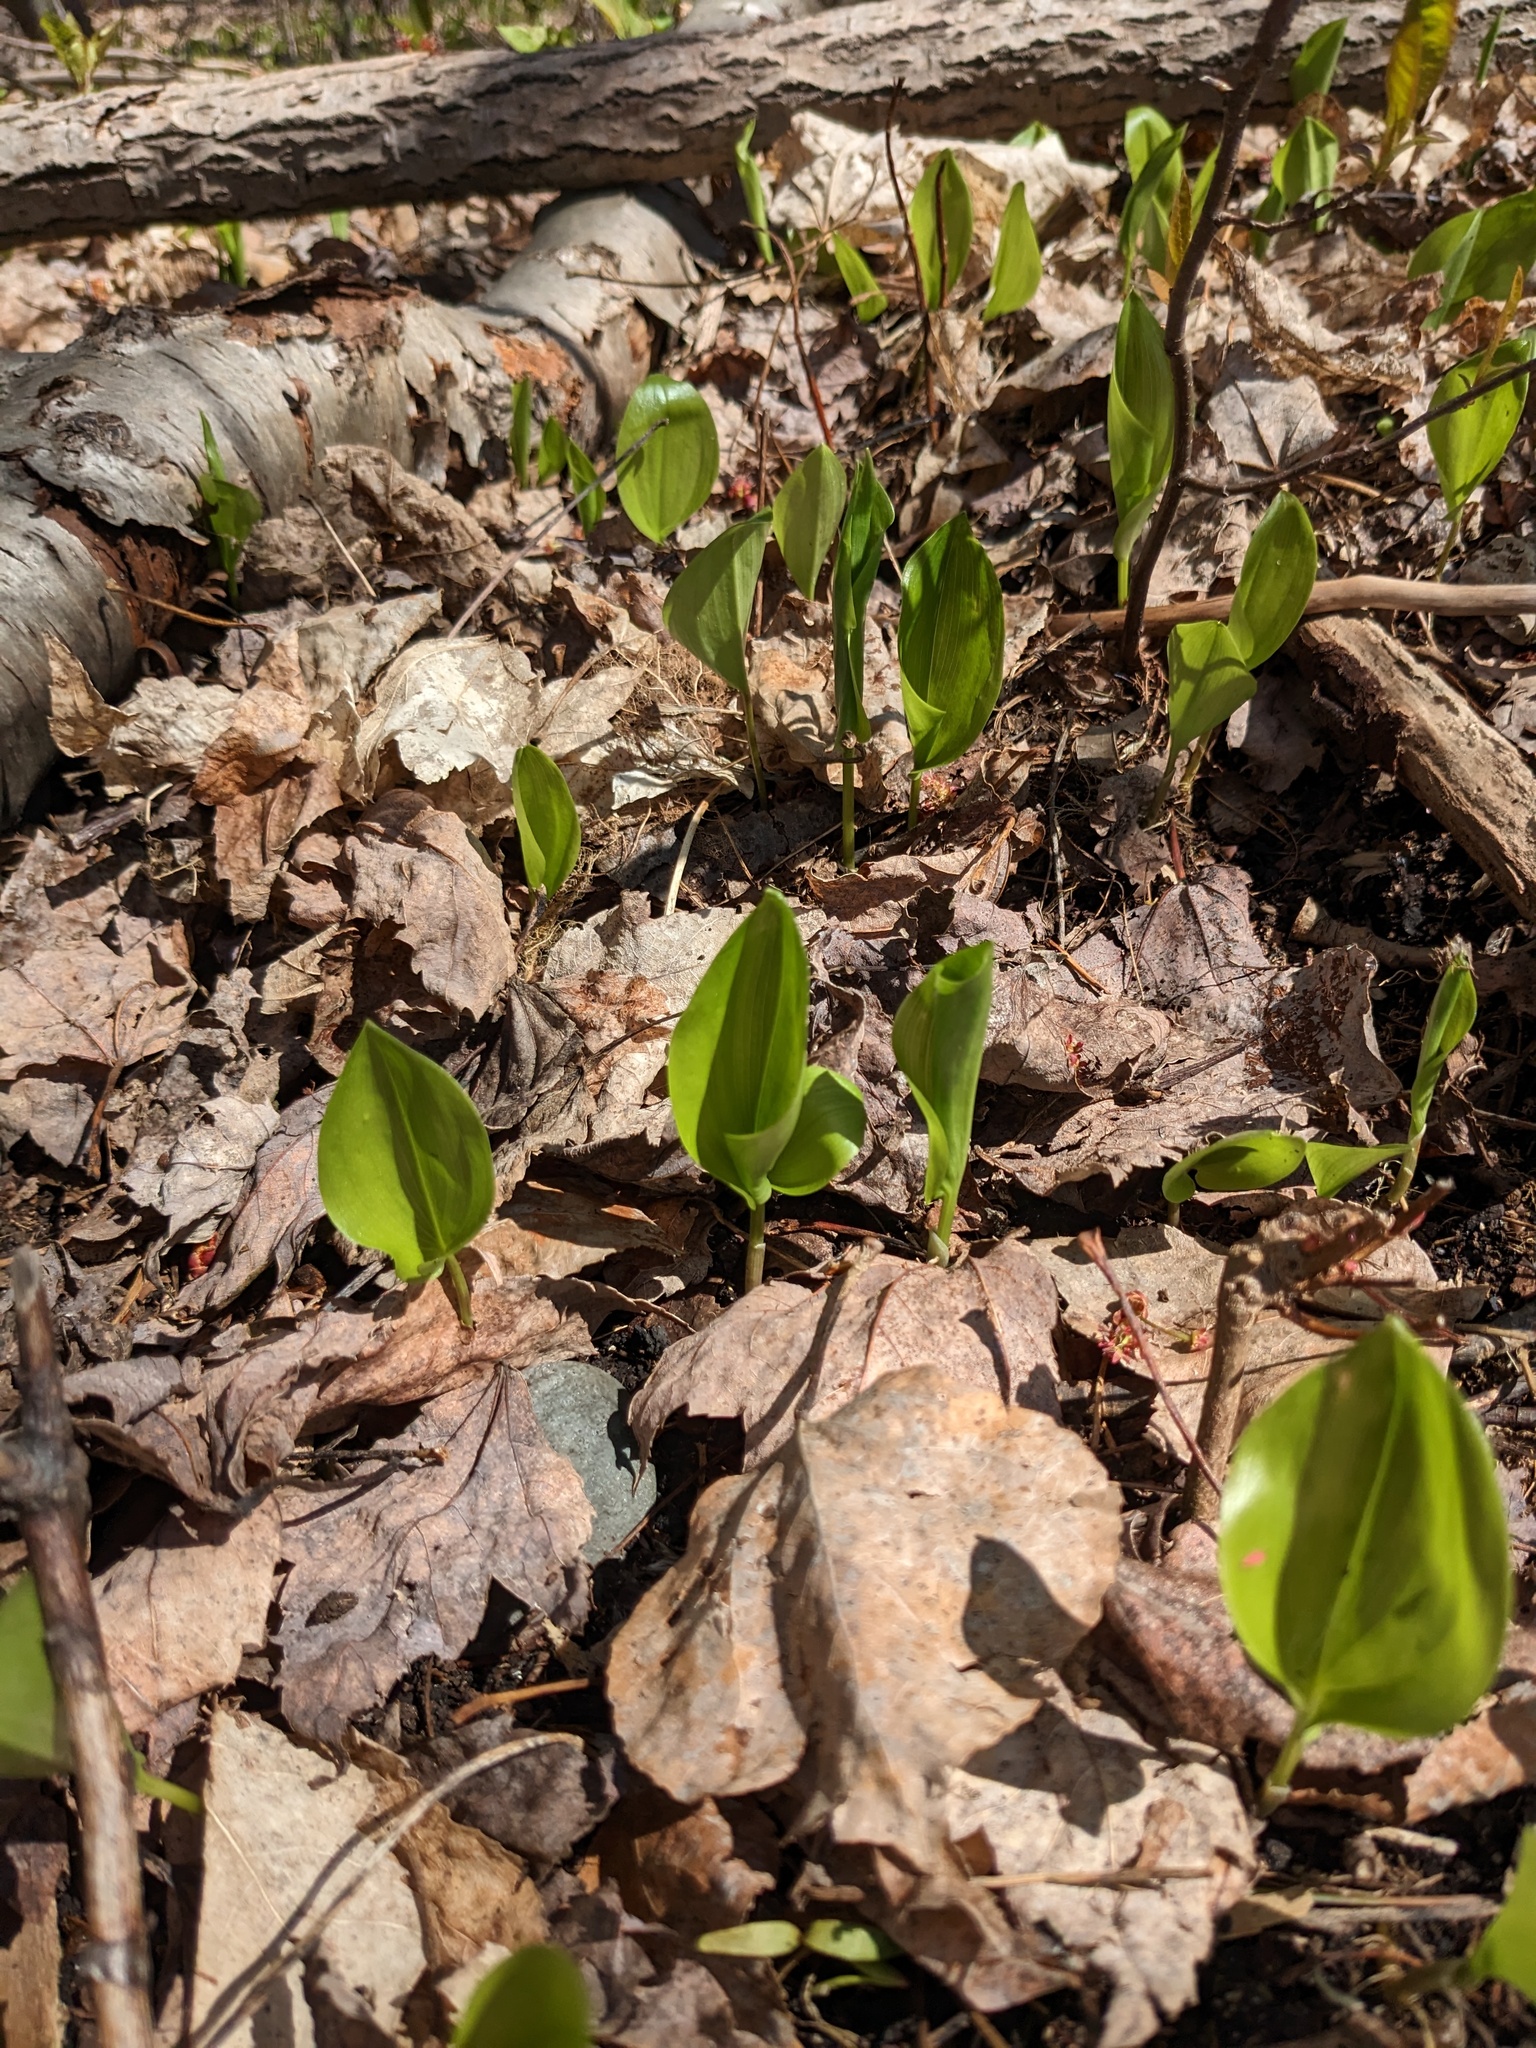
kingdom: Plantae
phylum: Tracheophyta
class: Liliopsida
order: Asparagales
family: Asparagaceae
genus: Maianthemum
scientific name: Maianthemum canadense
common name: False lily-of-the-valley
